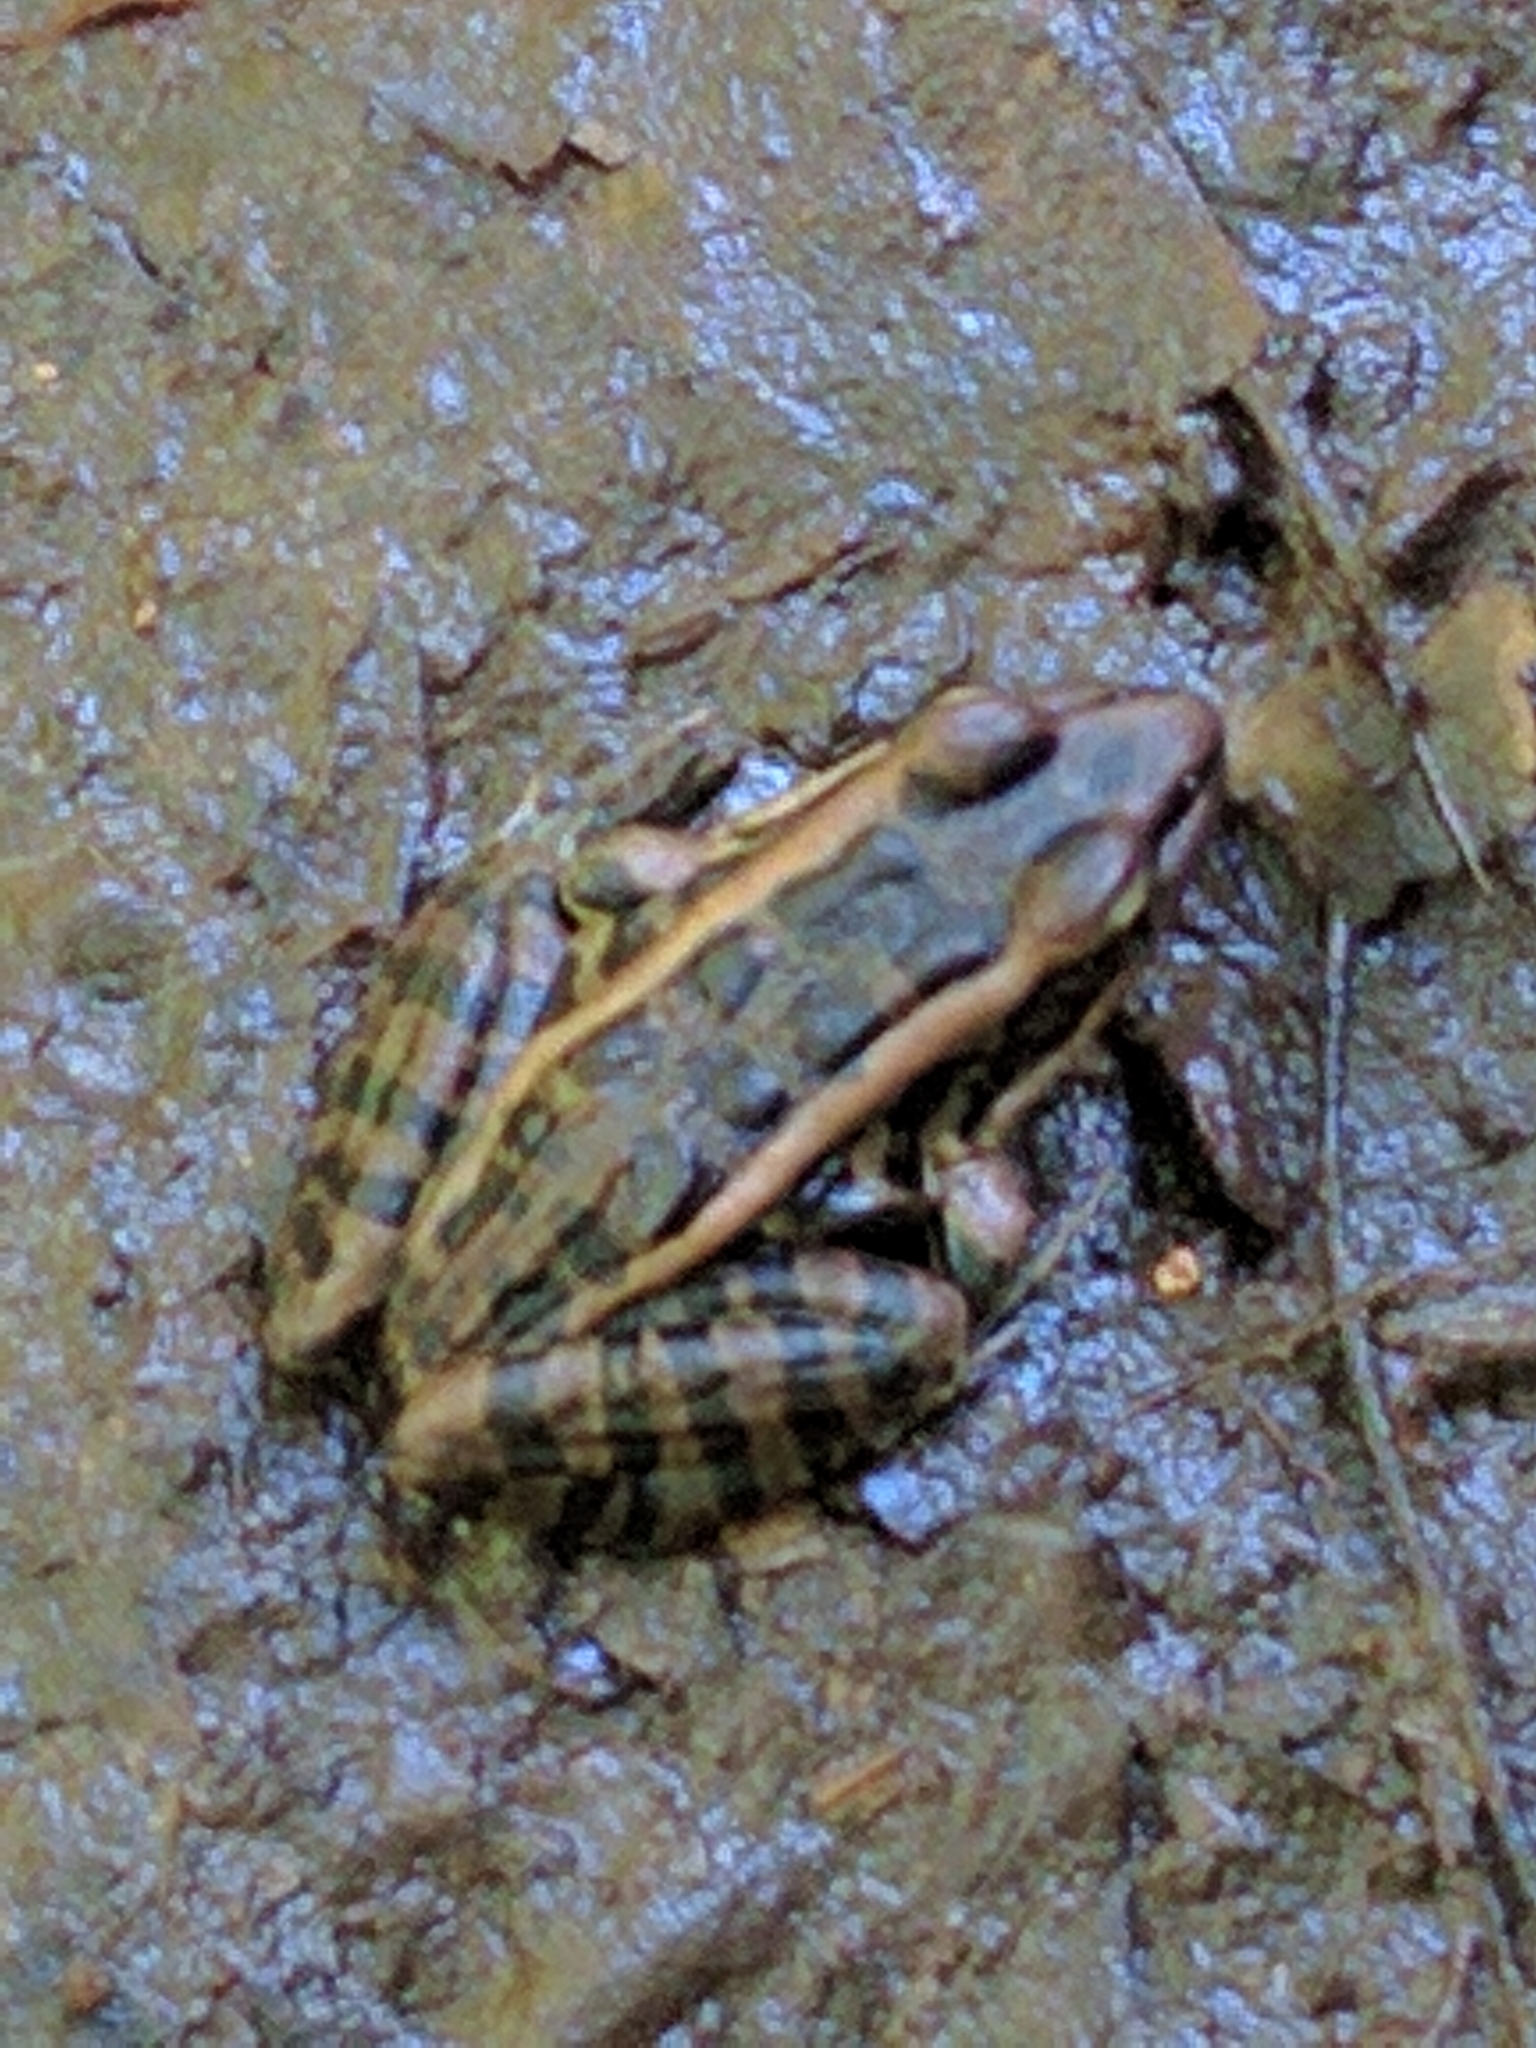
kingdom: Animalia
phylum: Chordata
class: Amphibia
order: Anura
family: Ranidae
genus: Lithobates
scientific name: Lithobates palustris
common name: Pickerel frog
